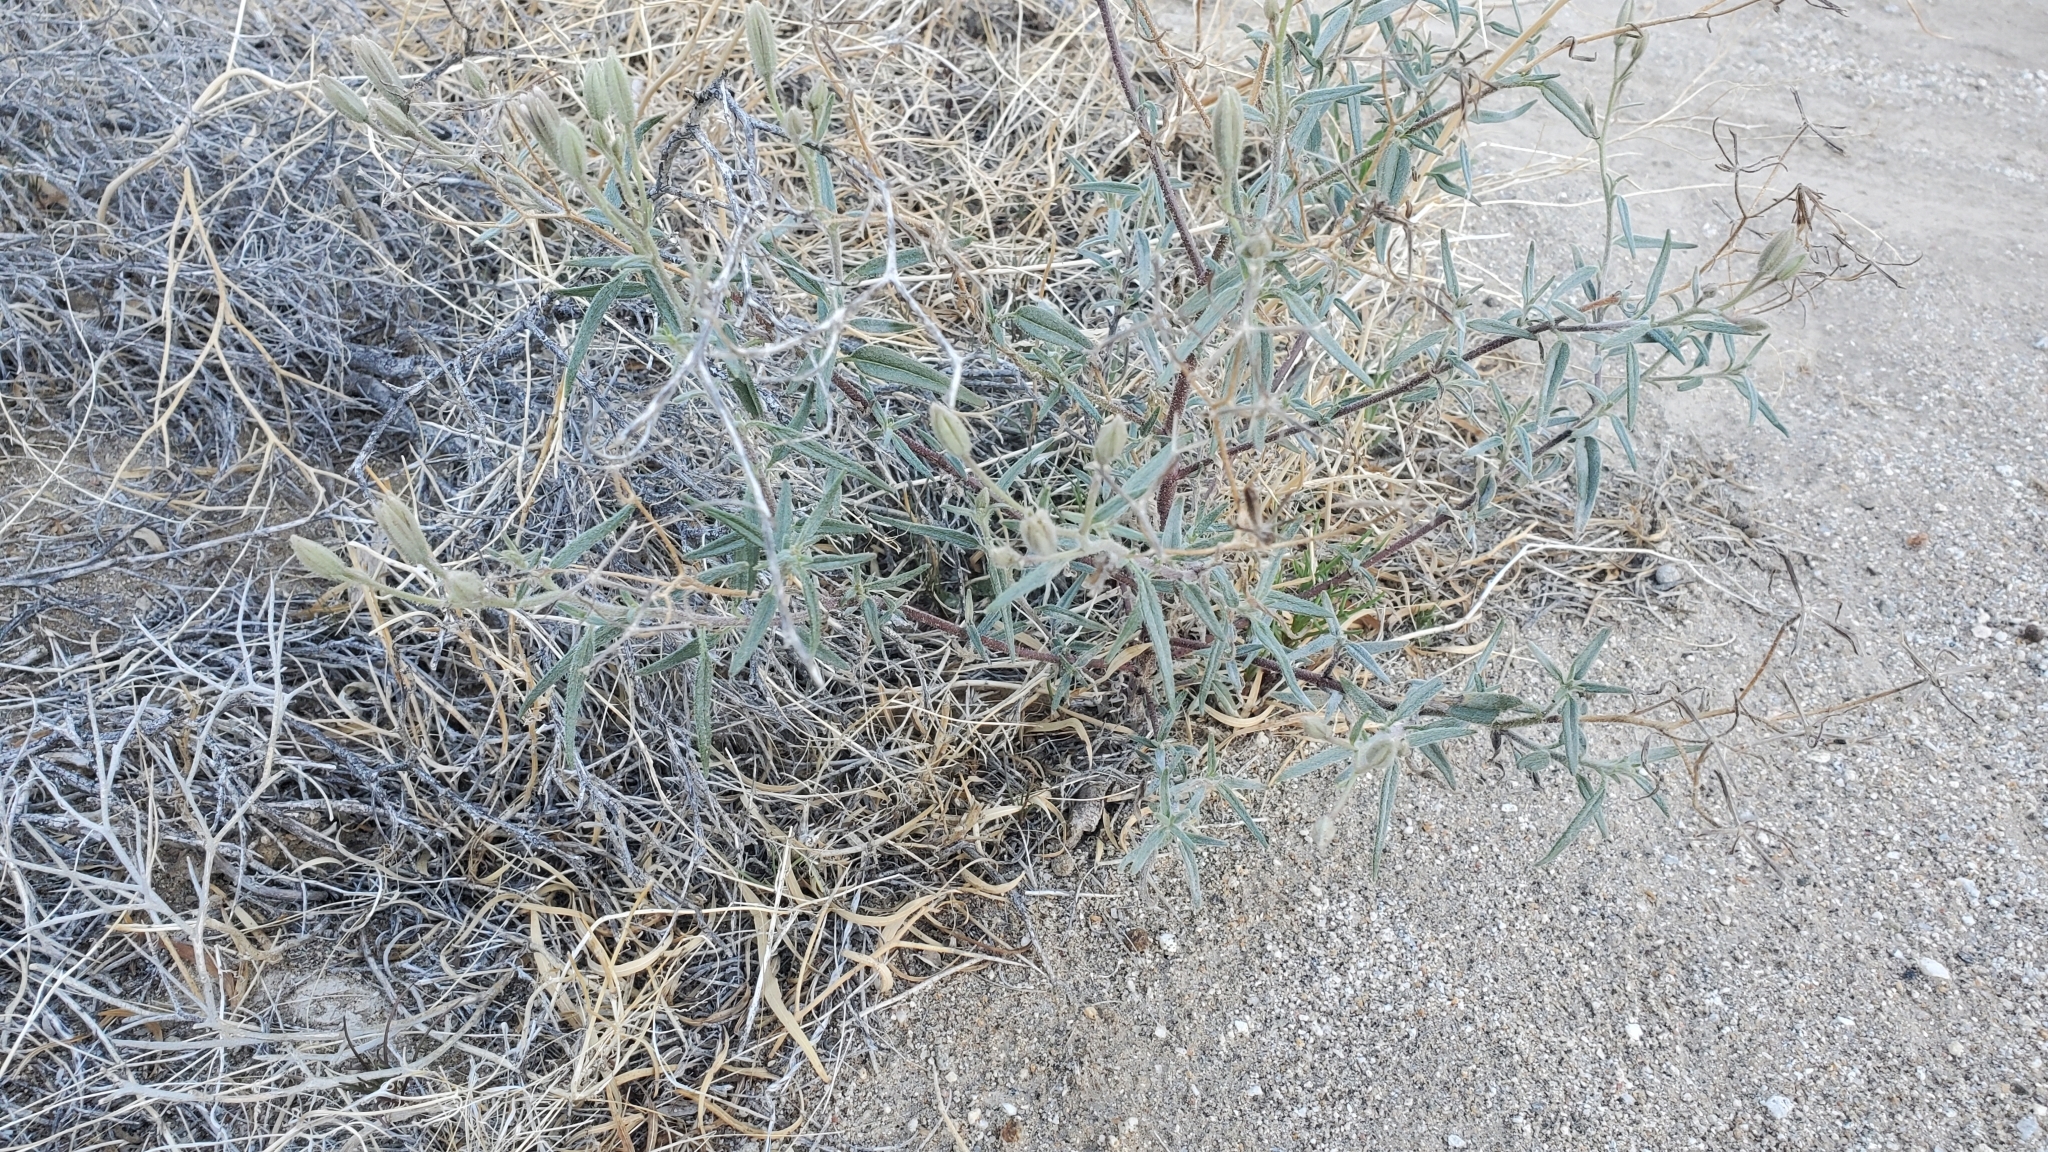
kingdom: Plantae
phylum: Tracheophyta
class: Magnoliopsida
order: Asterales
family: Asteraceae
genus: Palafoxia
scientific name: Palafoxia arida
